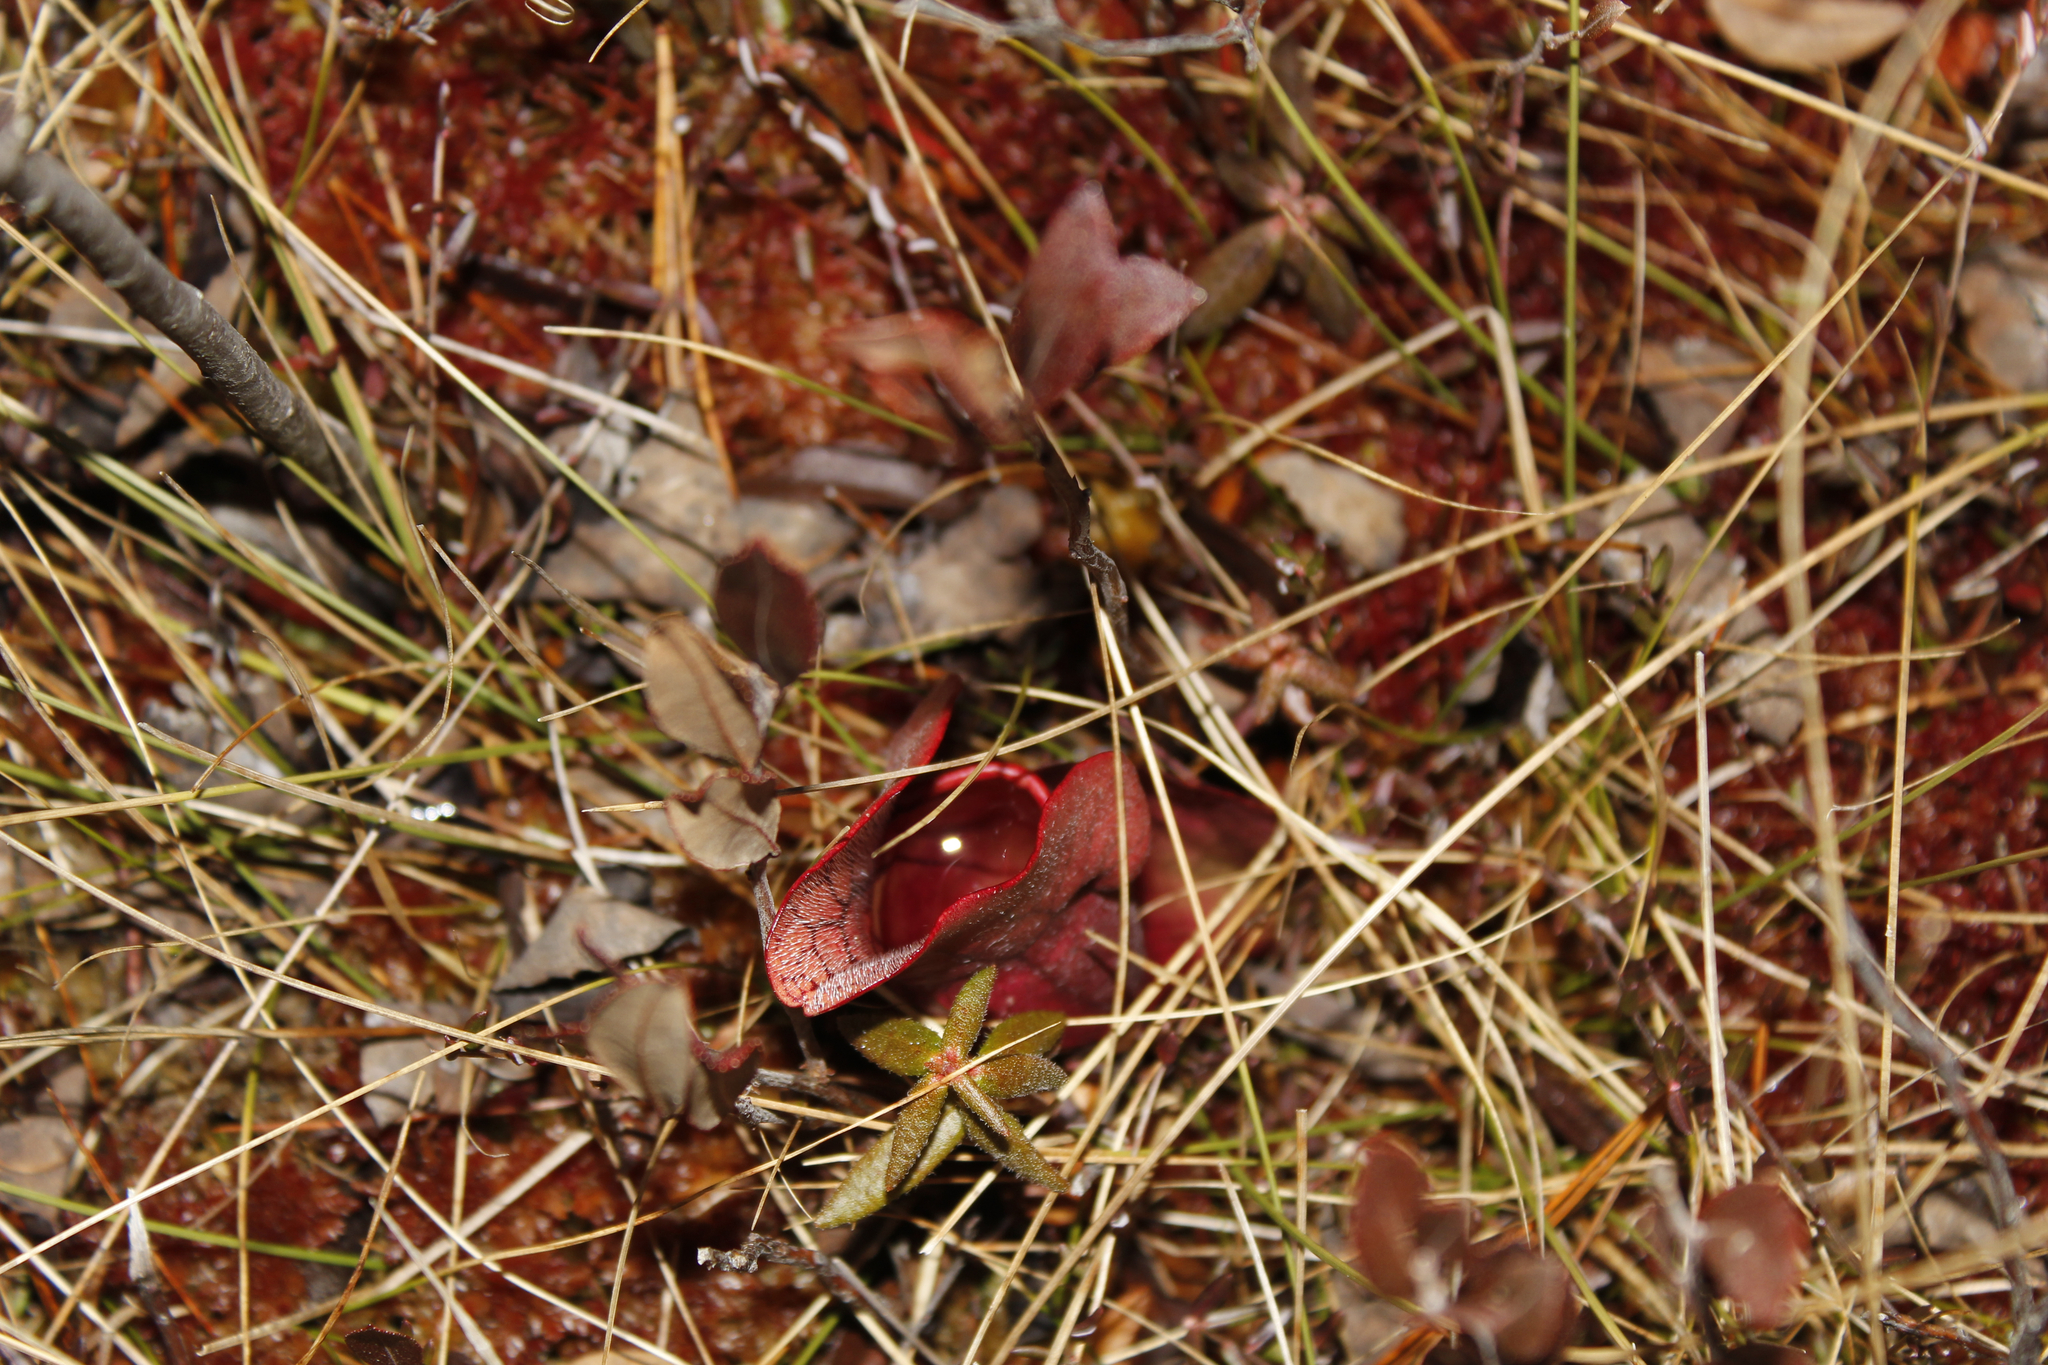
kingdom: Plantae
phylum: Tracheophyta
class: Magnoliopsida
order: Ericales
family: Sarraceniaceae
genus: Sarracenia
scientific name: Sarracenia purpurea
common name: Pitcherplant
